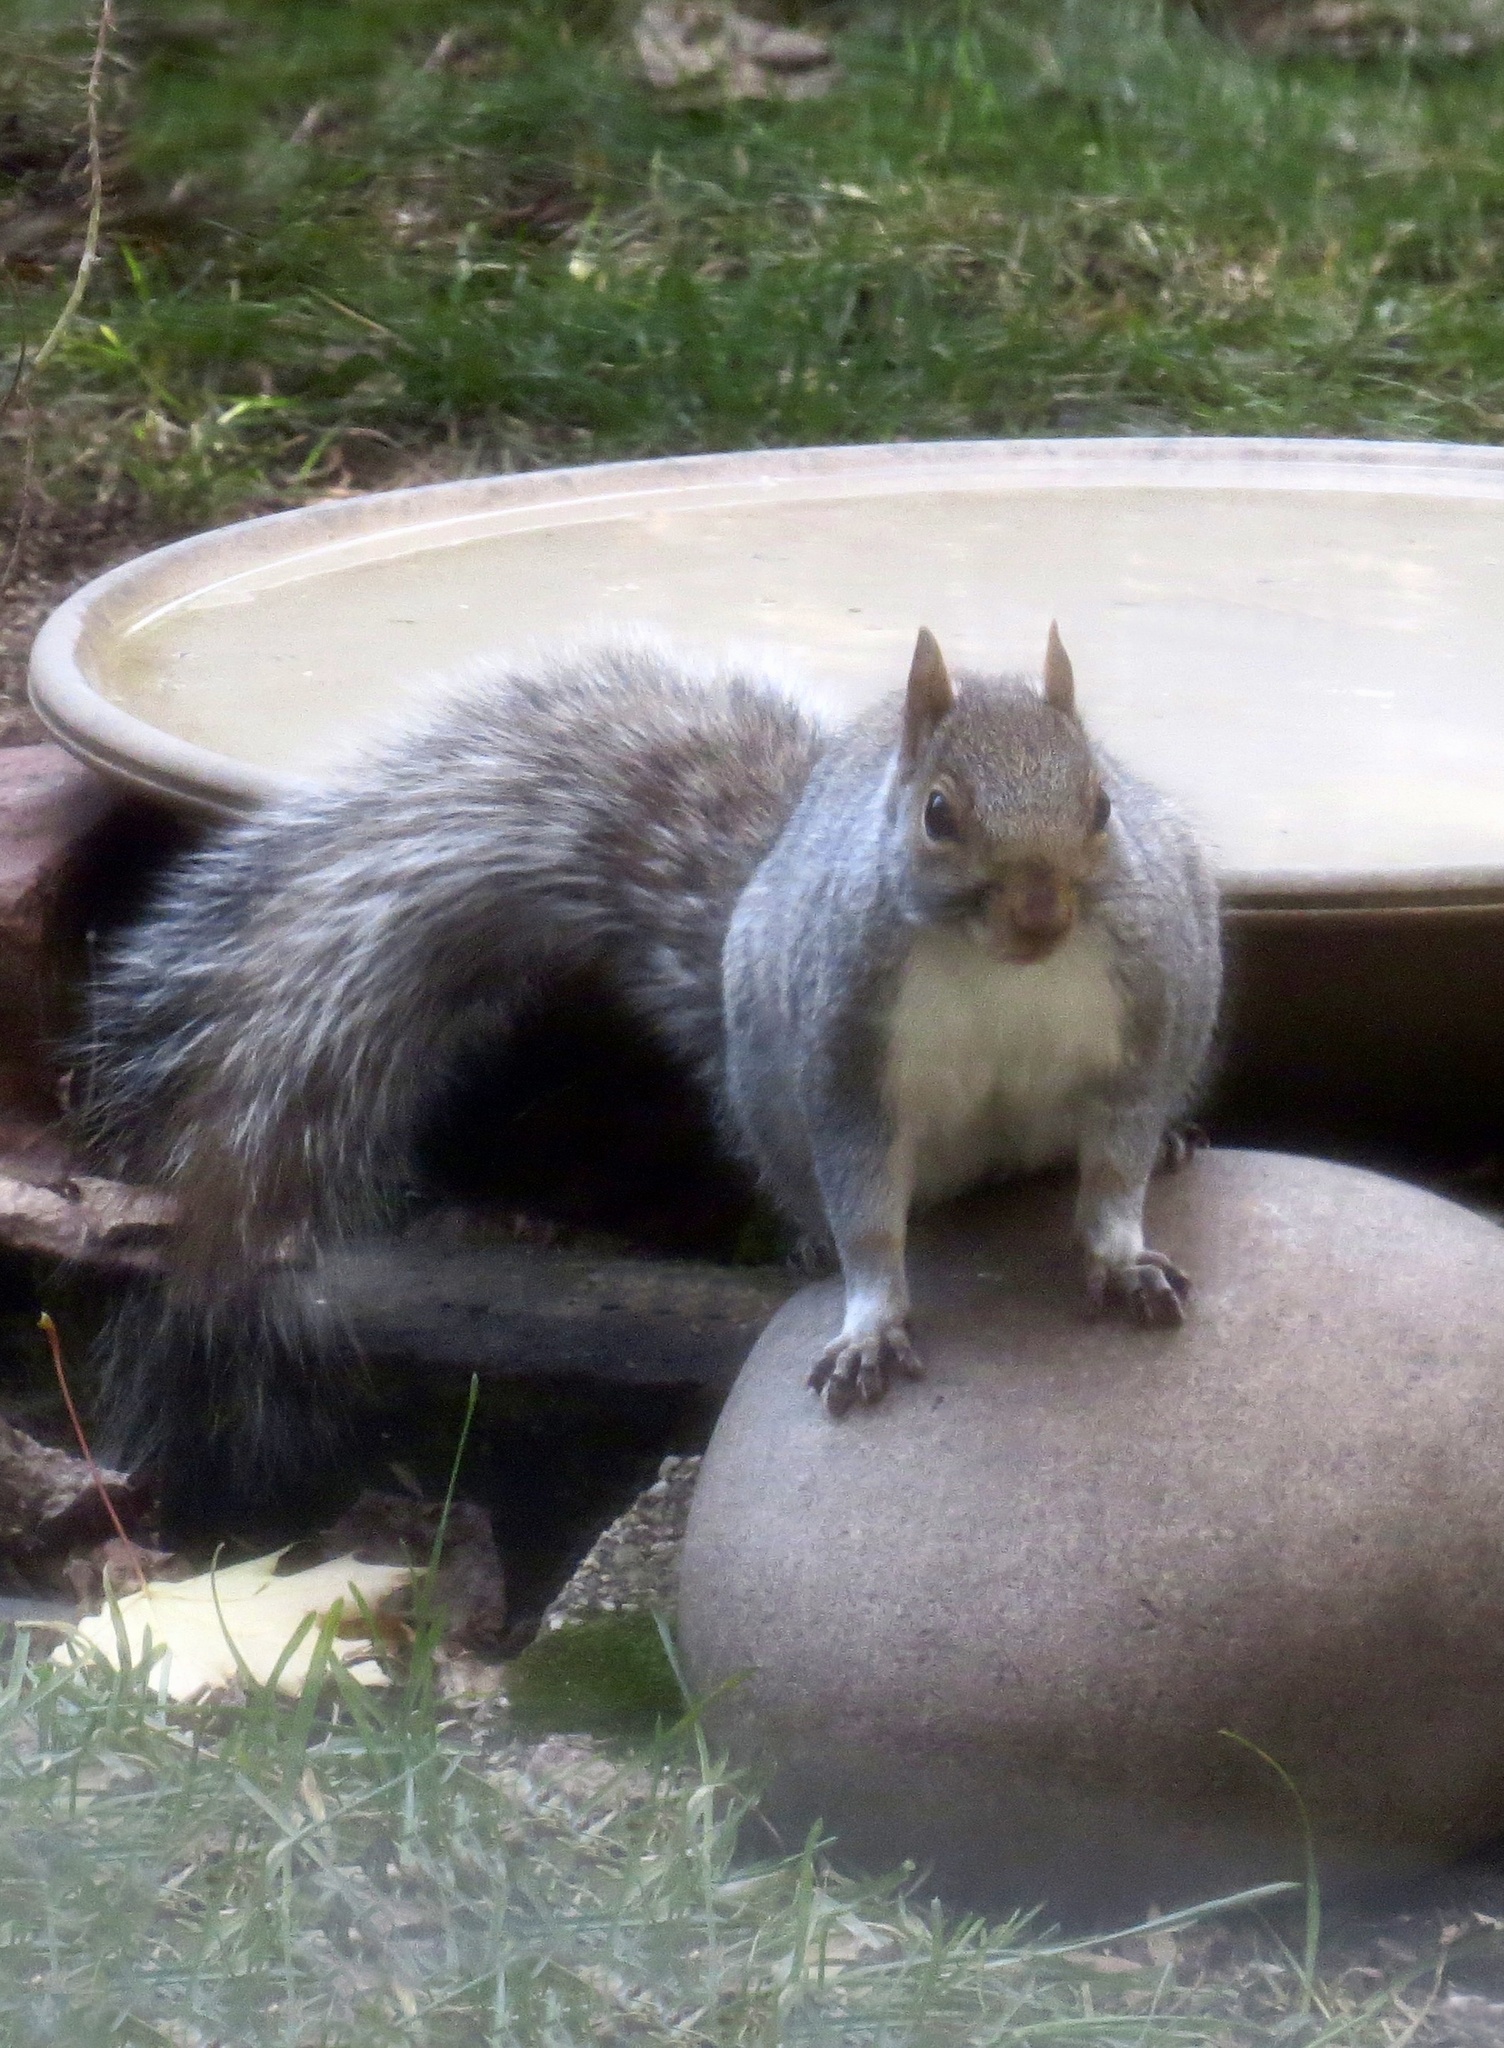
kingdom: Animalia
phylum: Chordata
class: Mammalia
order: Rodentia
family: Sciuridae
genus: Sciurus
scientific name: Sciurus carolinensis
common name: Eastern gray squirrel
